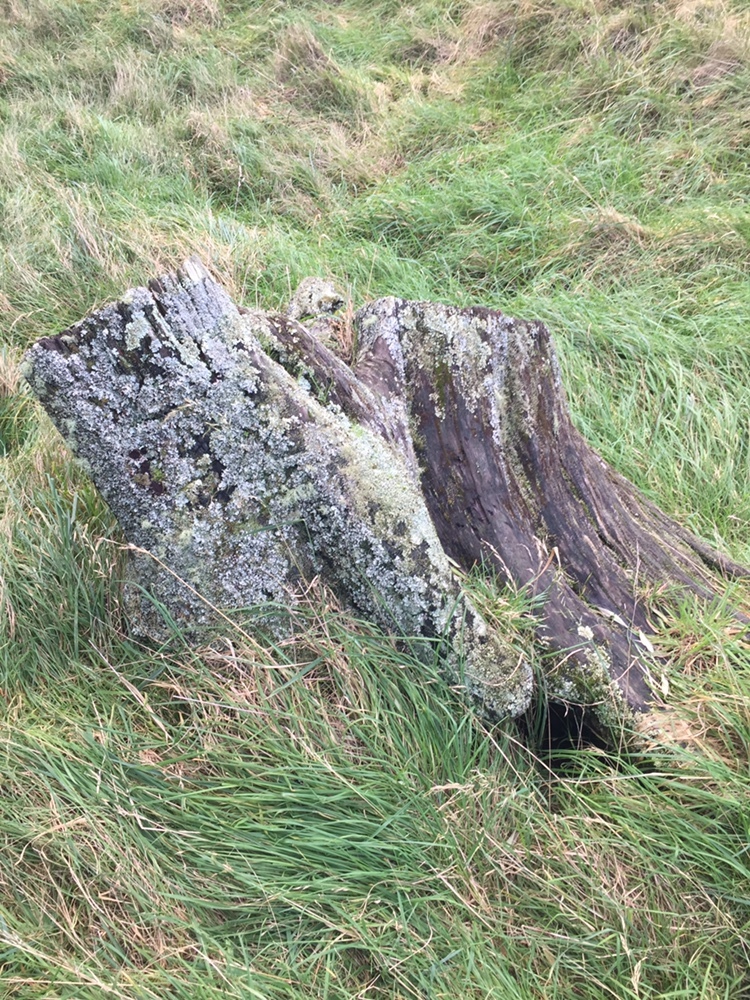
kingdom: Fungi
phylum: Ascomycota
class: Lecanoromycetes
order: Lecanorales
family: Cladoniaceae
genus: Cladonia
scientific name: Cladonia cervicornis
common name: Browned pixie-cup lichen
